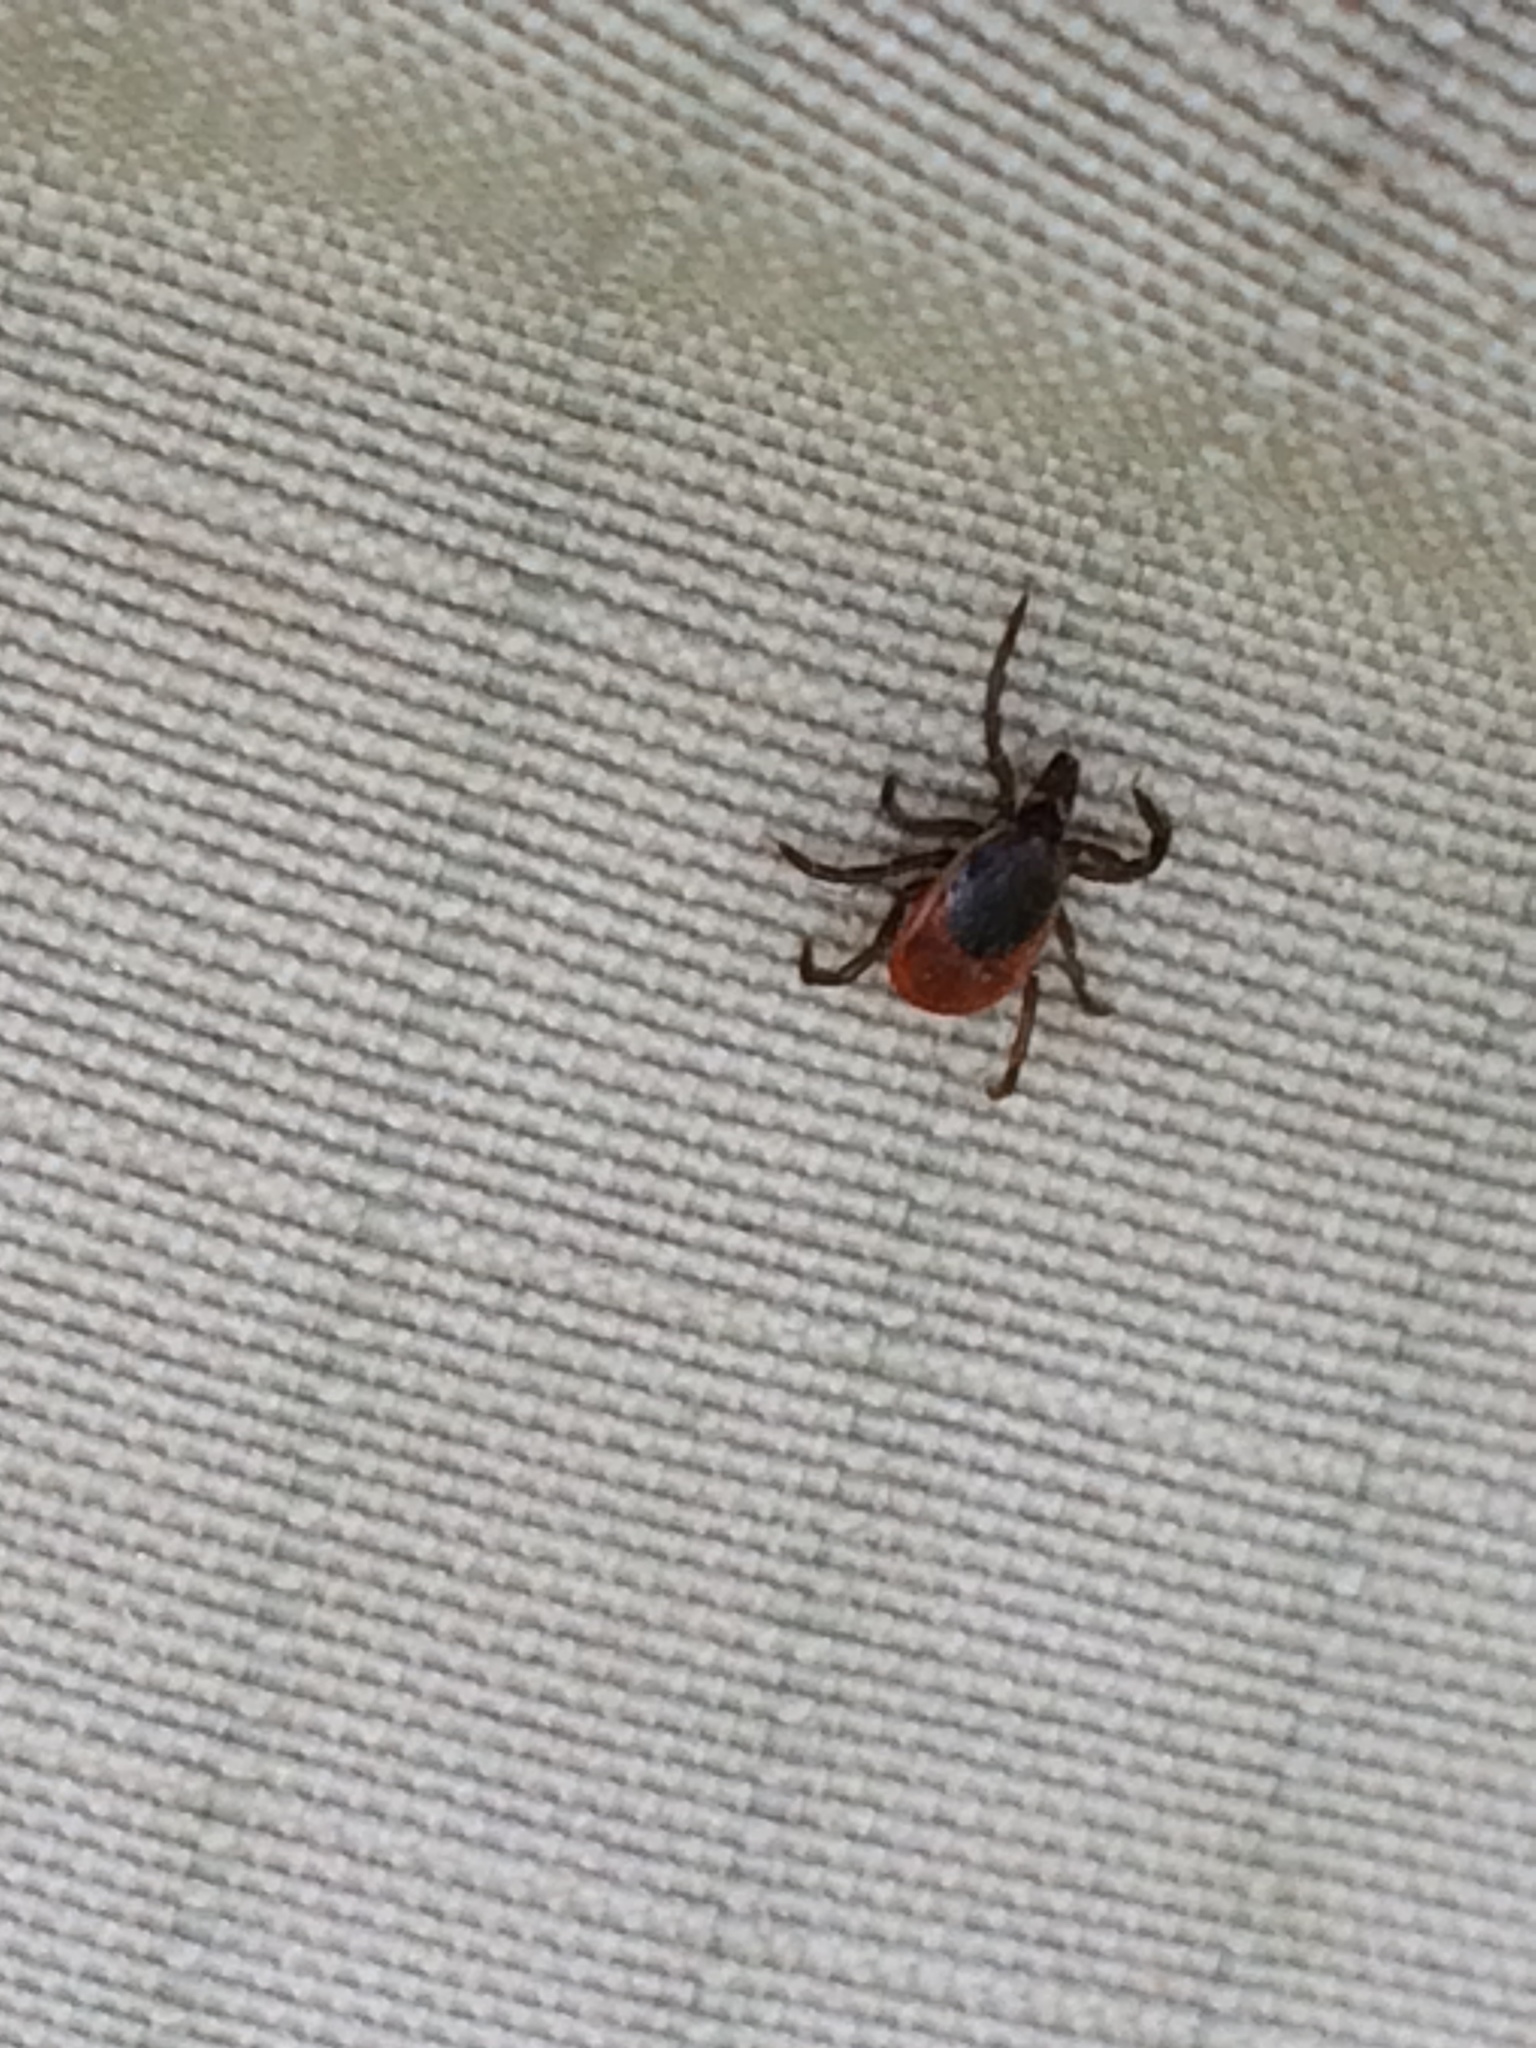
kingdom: Animalia
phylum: Arthropoda
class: Arachnida
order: Ixodida
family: Ixodidae
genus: Ixodes
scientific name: Ixodes scapularis
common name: Black legged tick
